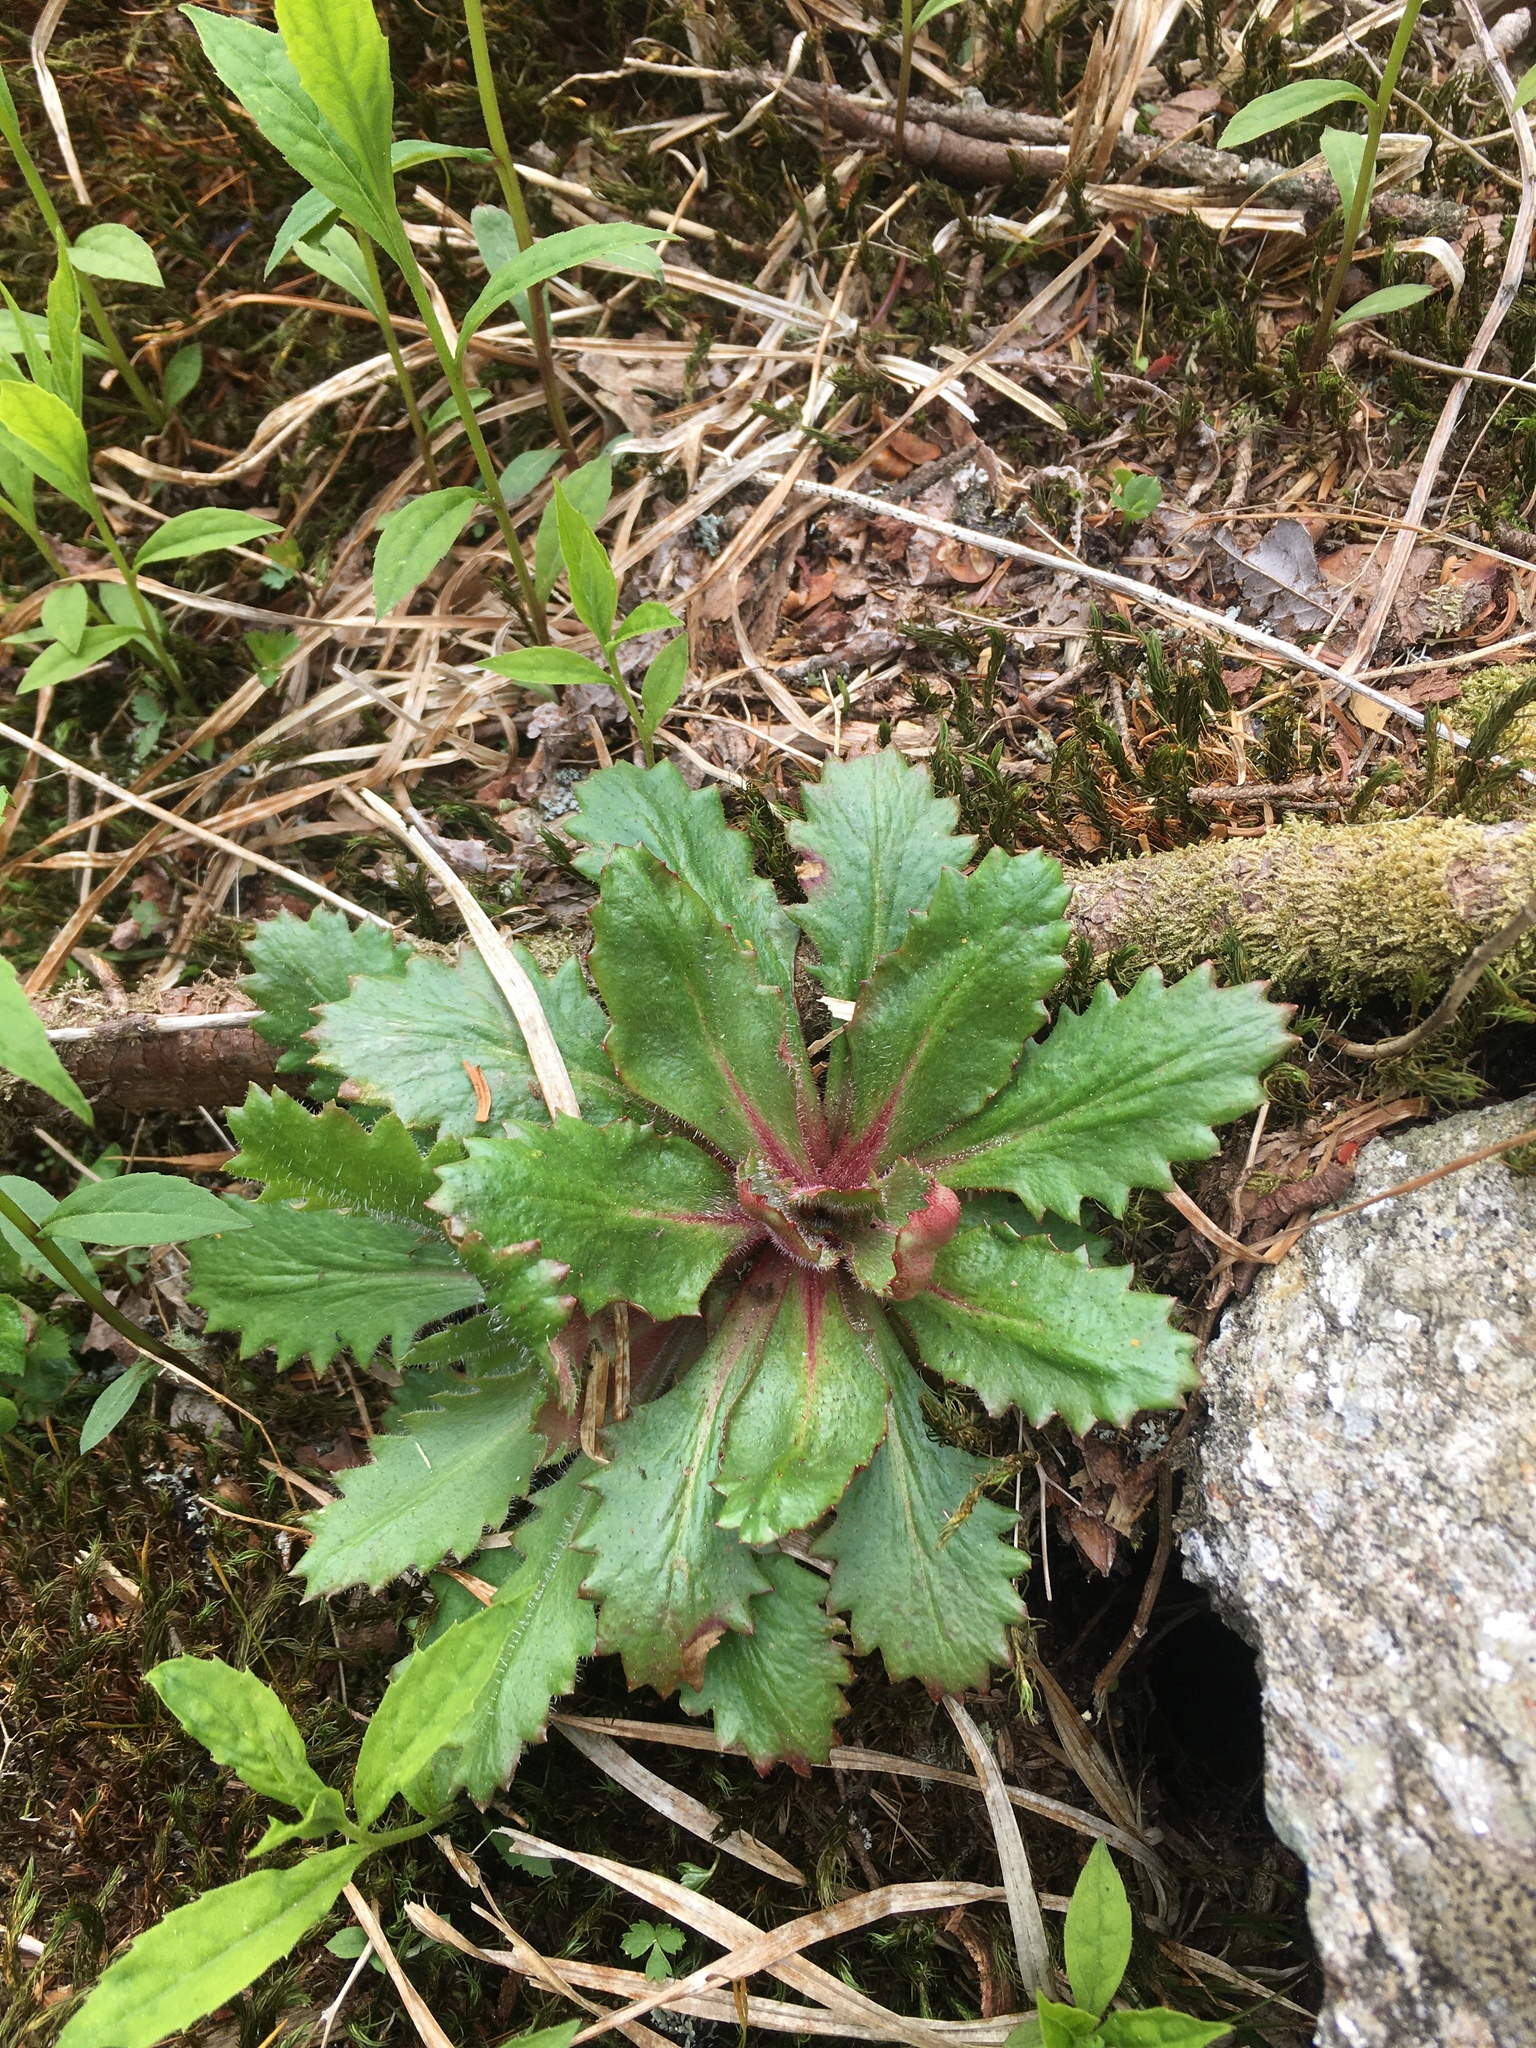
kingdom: Plantae
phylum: Tracheophyta
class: Magnoliopsida
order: Saxifragales
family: Saxifragaceae
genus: Micranthes
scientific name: Micranthes petiolaris
